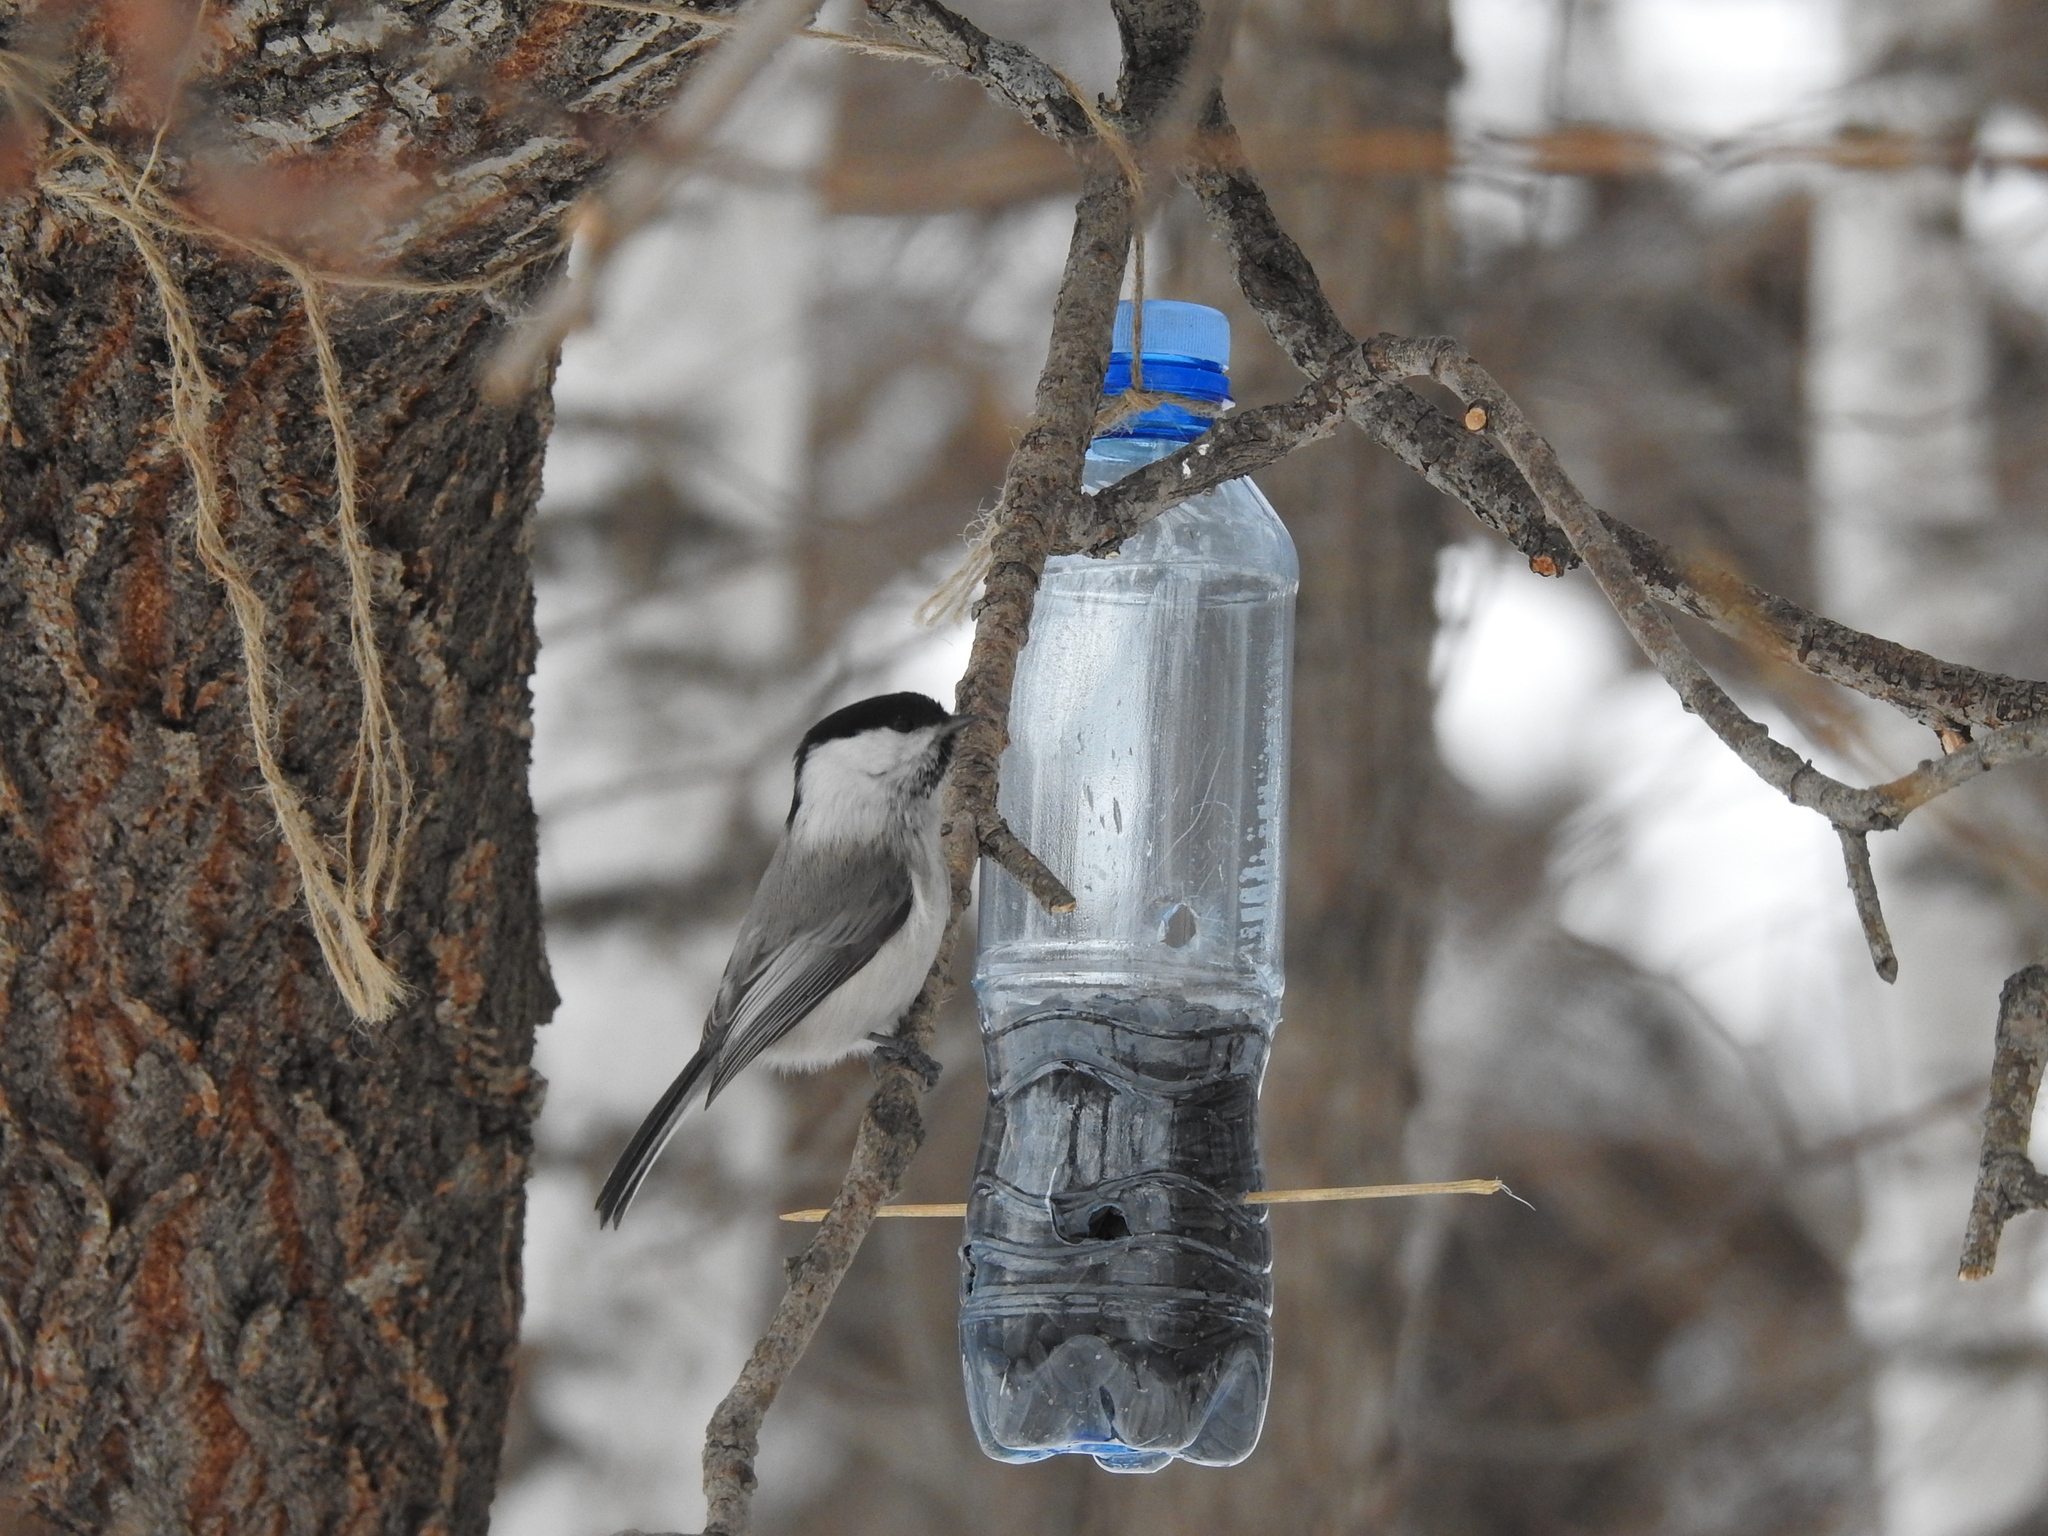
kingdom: Animalia
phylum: Chordata
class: Aves
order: Passeriformes
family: Paridae
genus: Poecile
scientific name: Poecile montanus
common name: Willow tit
